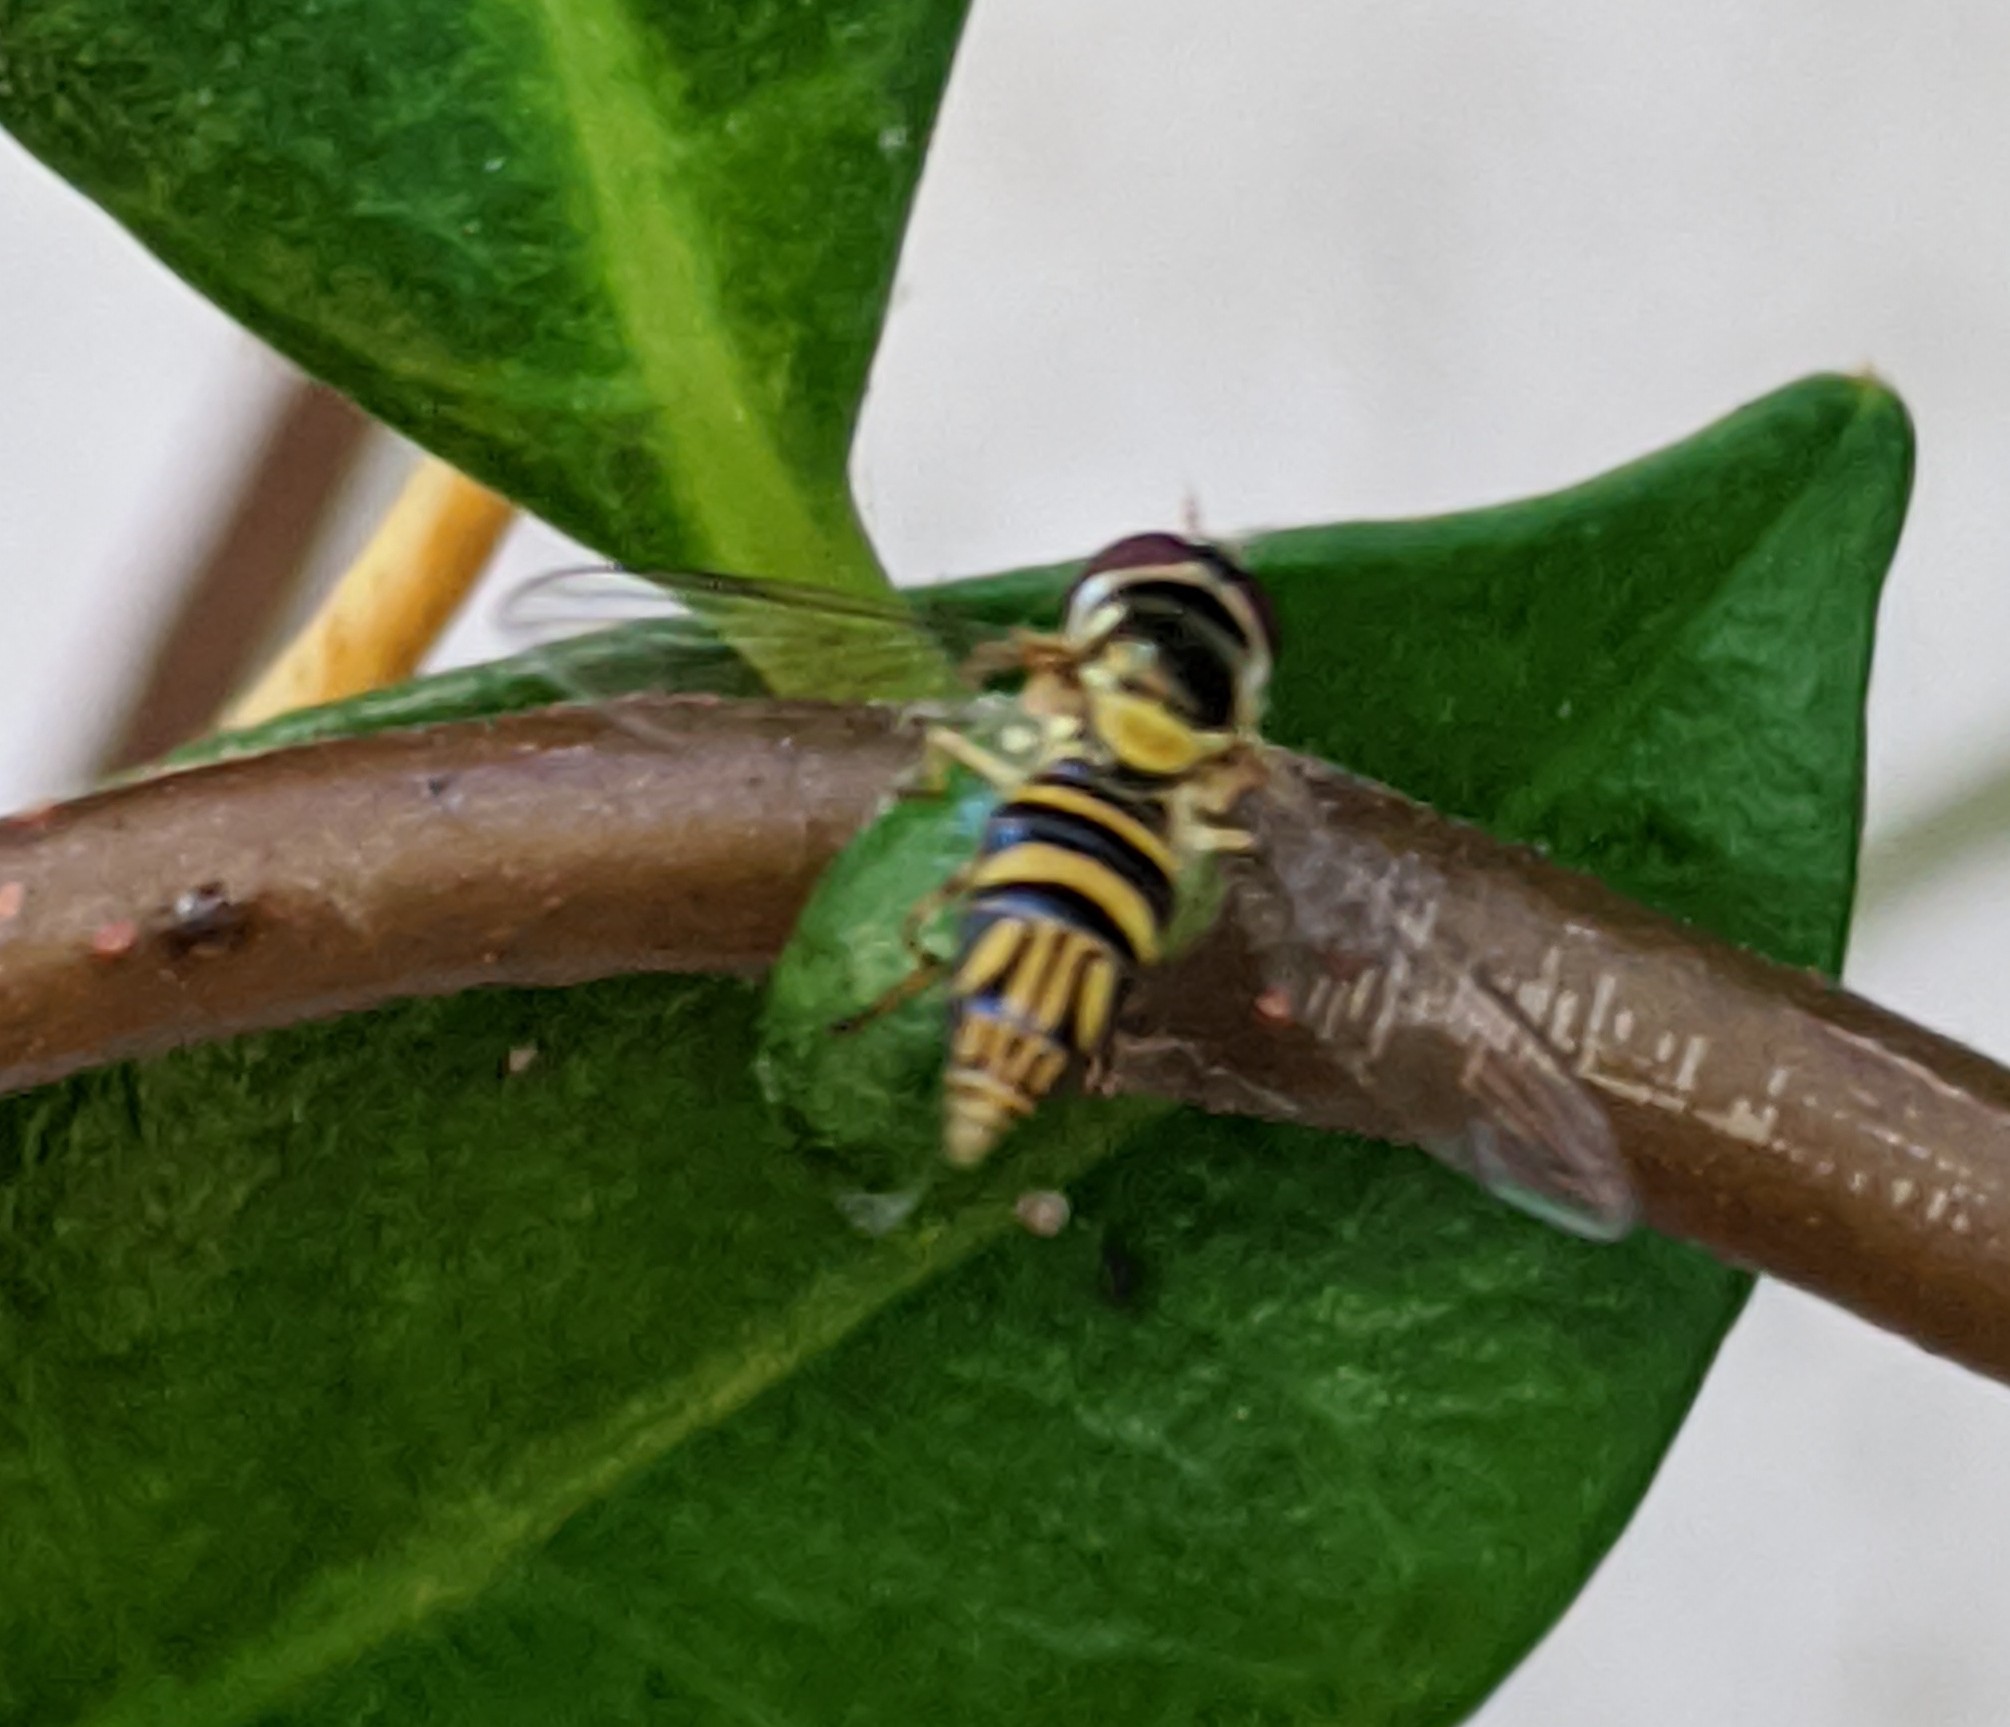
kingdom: Animalia
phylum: Arthropoda
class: Insecta
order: Diptera
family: Syrphidae
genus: Allograpta
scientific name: Allograpta obliqua
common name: Common oblique syrphid
